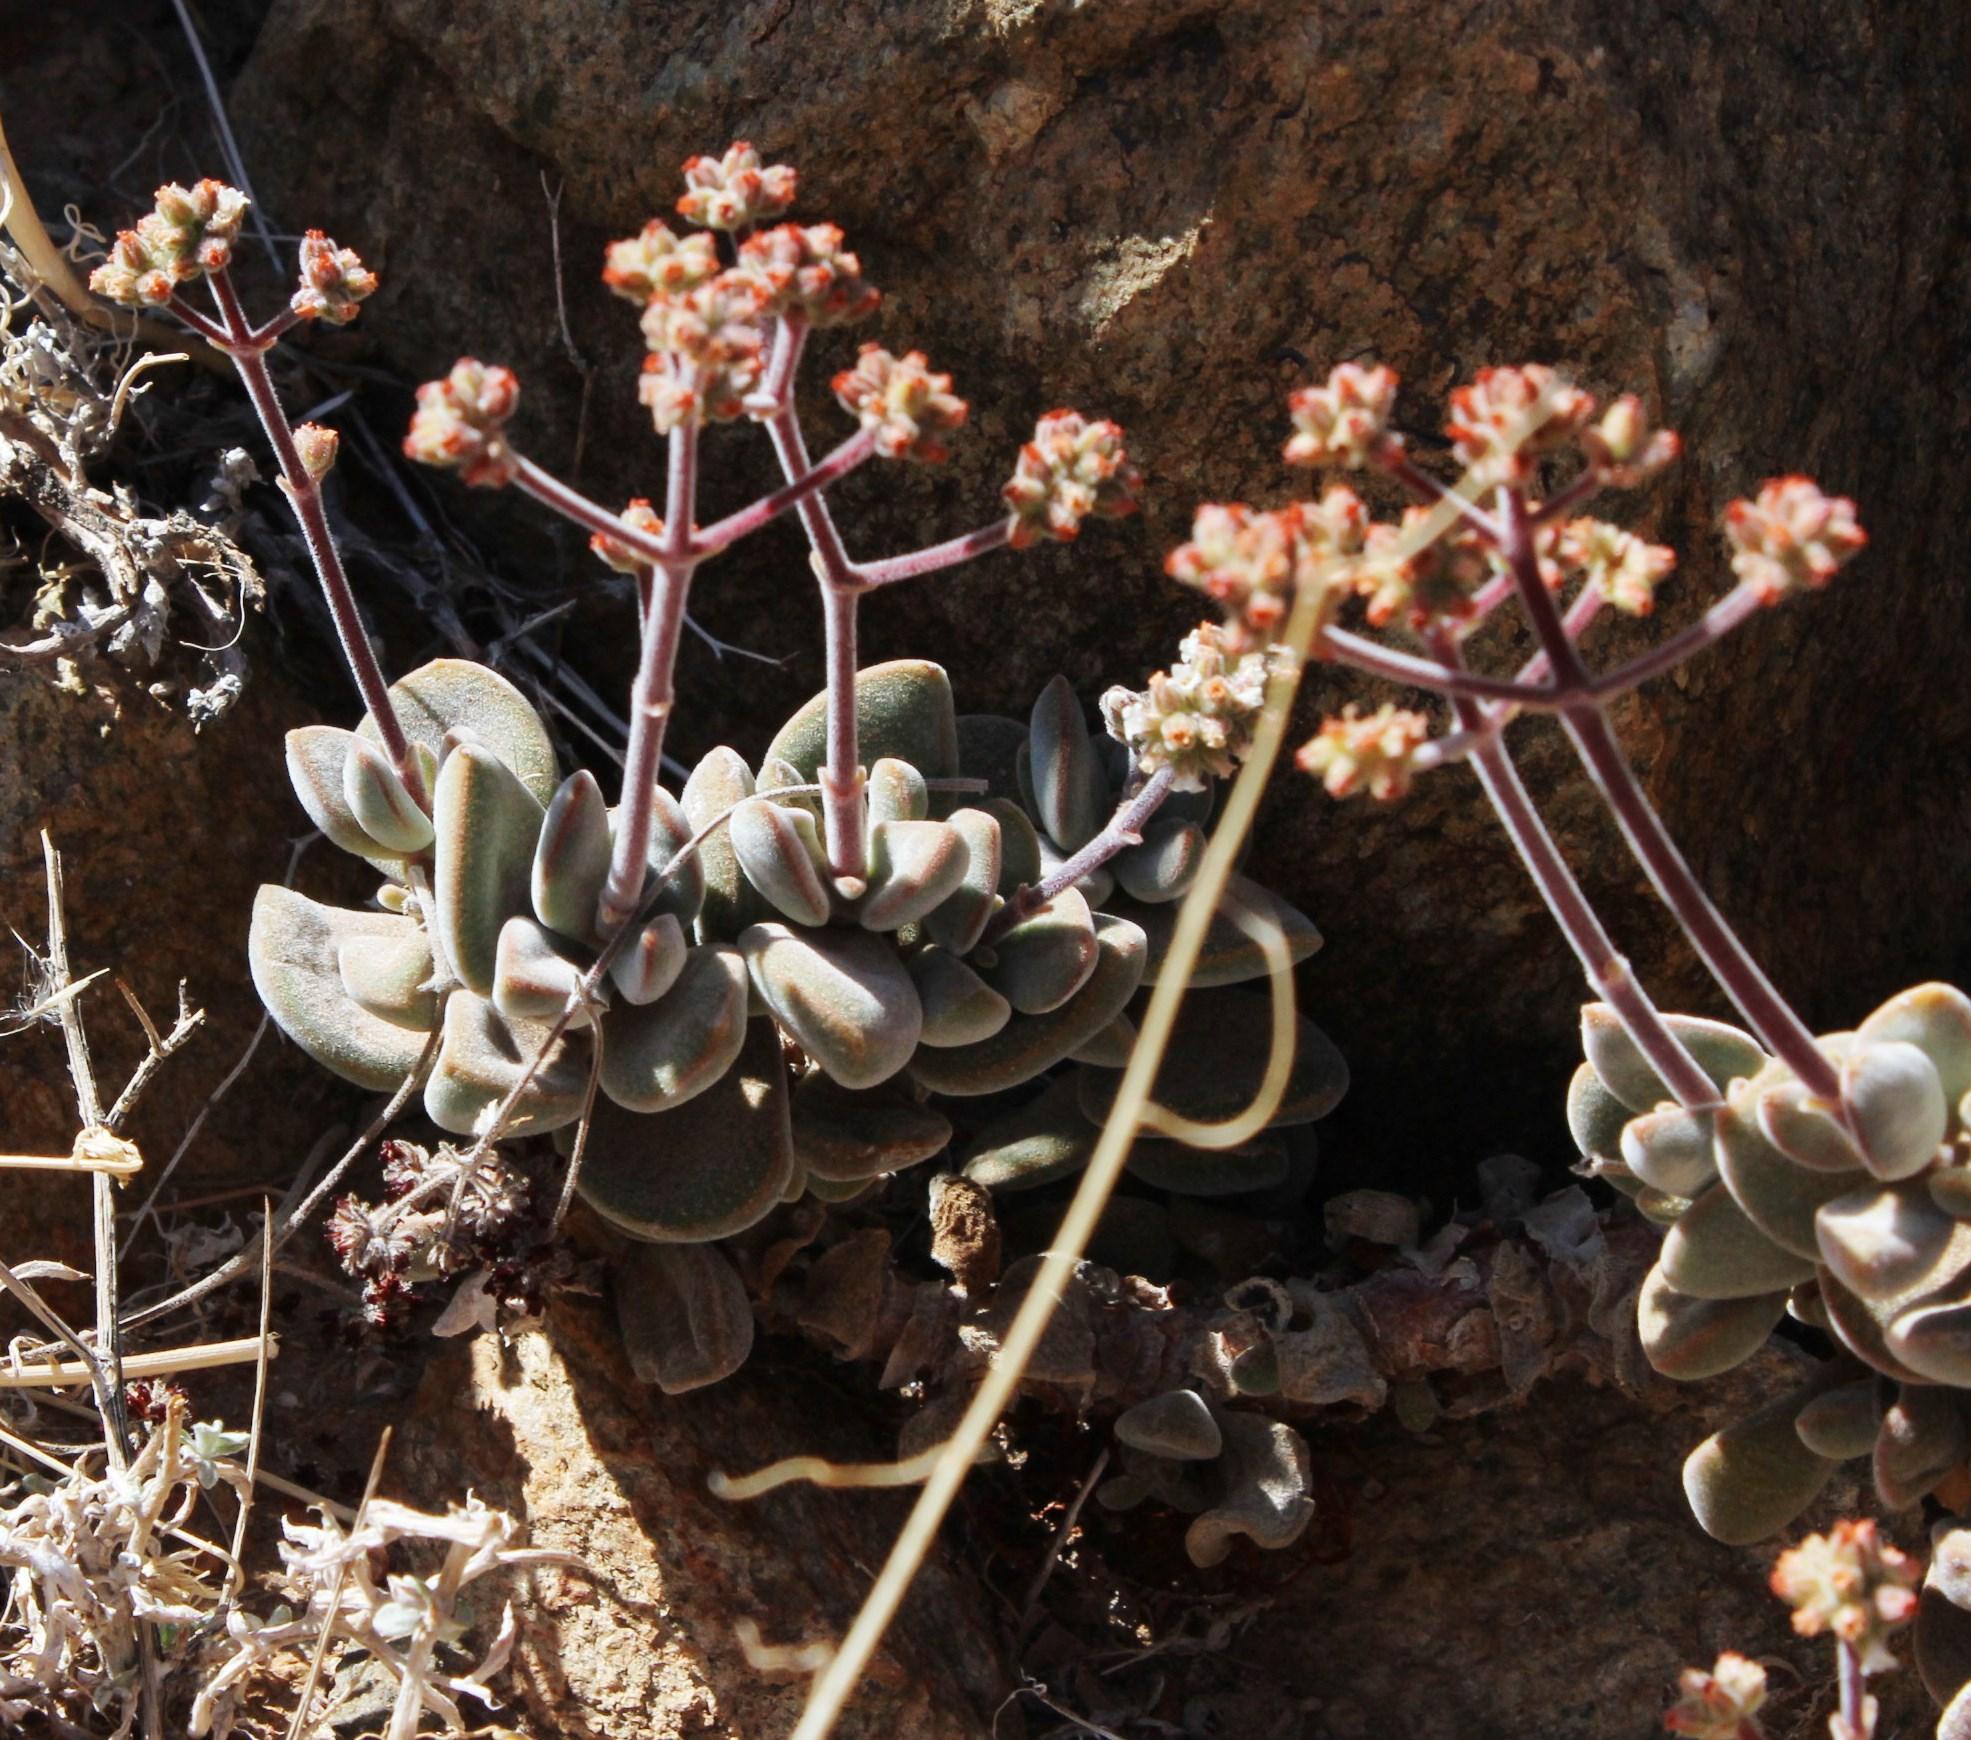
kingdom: Plantae
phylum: Tracheophyta
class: Magnoliopsida
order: Saxifragales
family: Crassulaceae
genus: Crassula
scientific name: Crassula sericea
